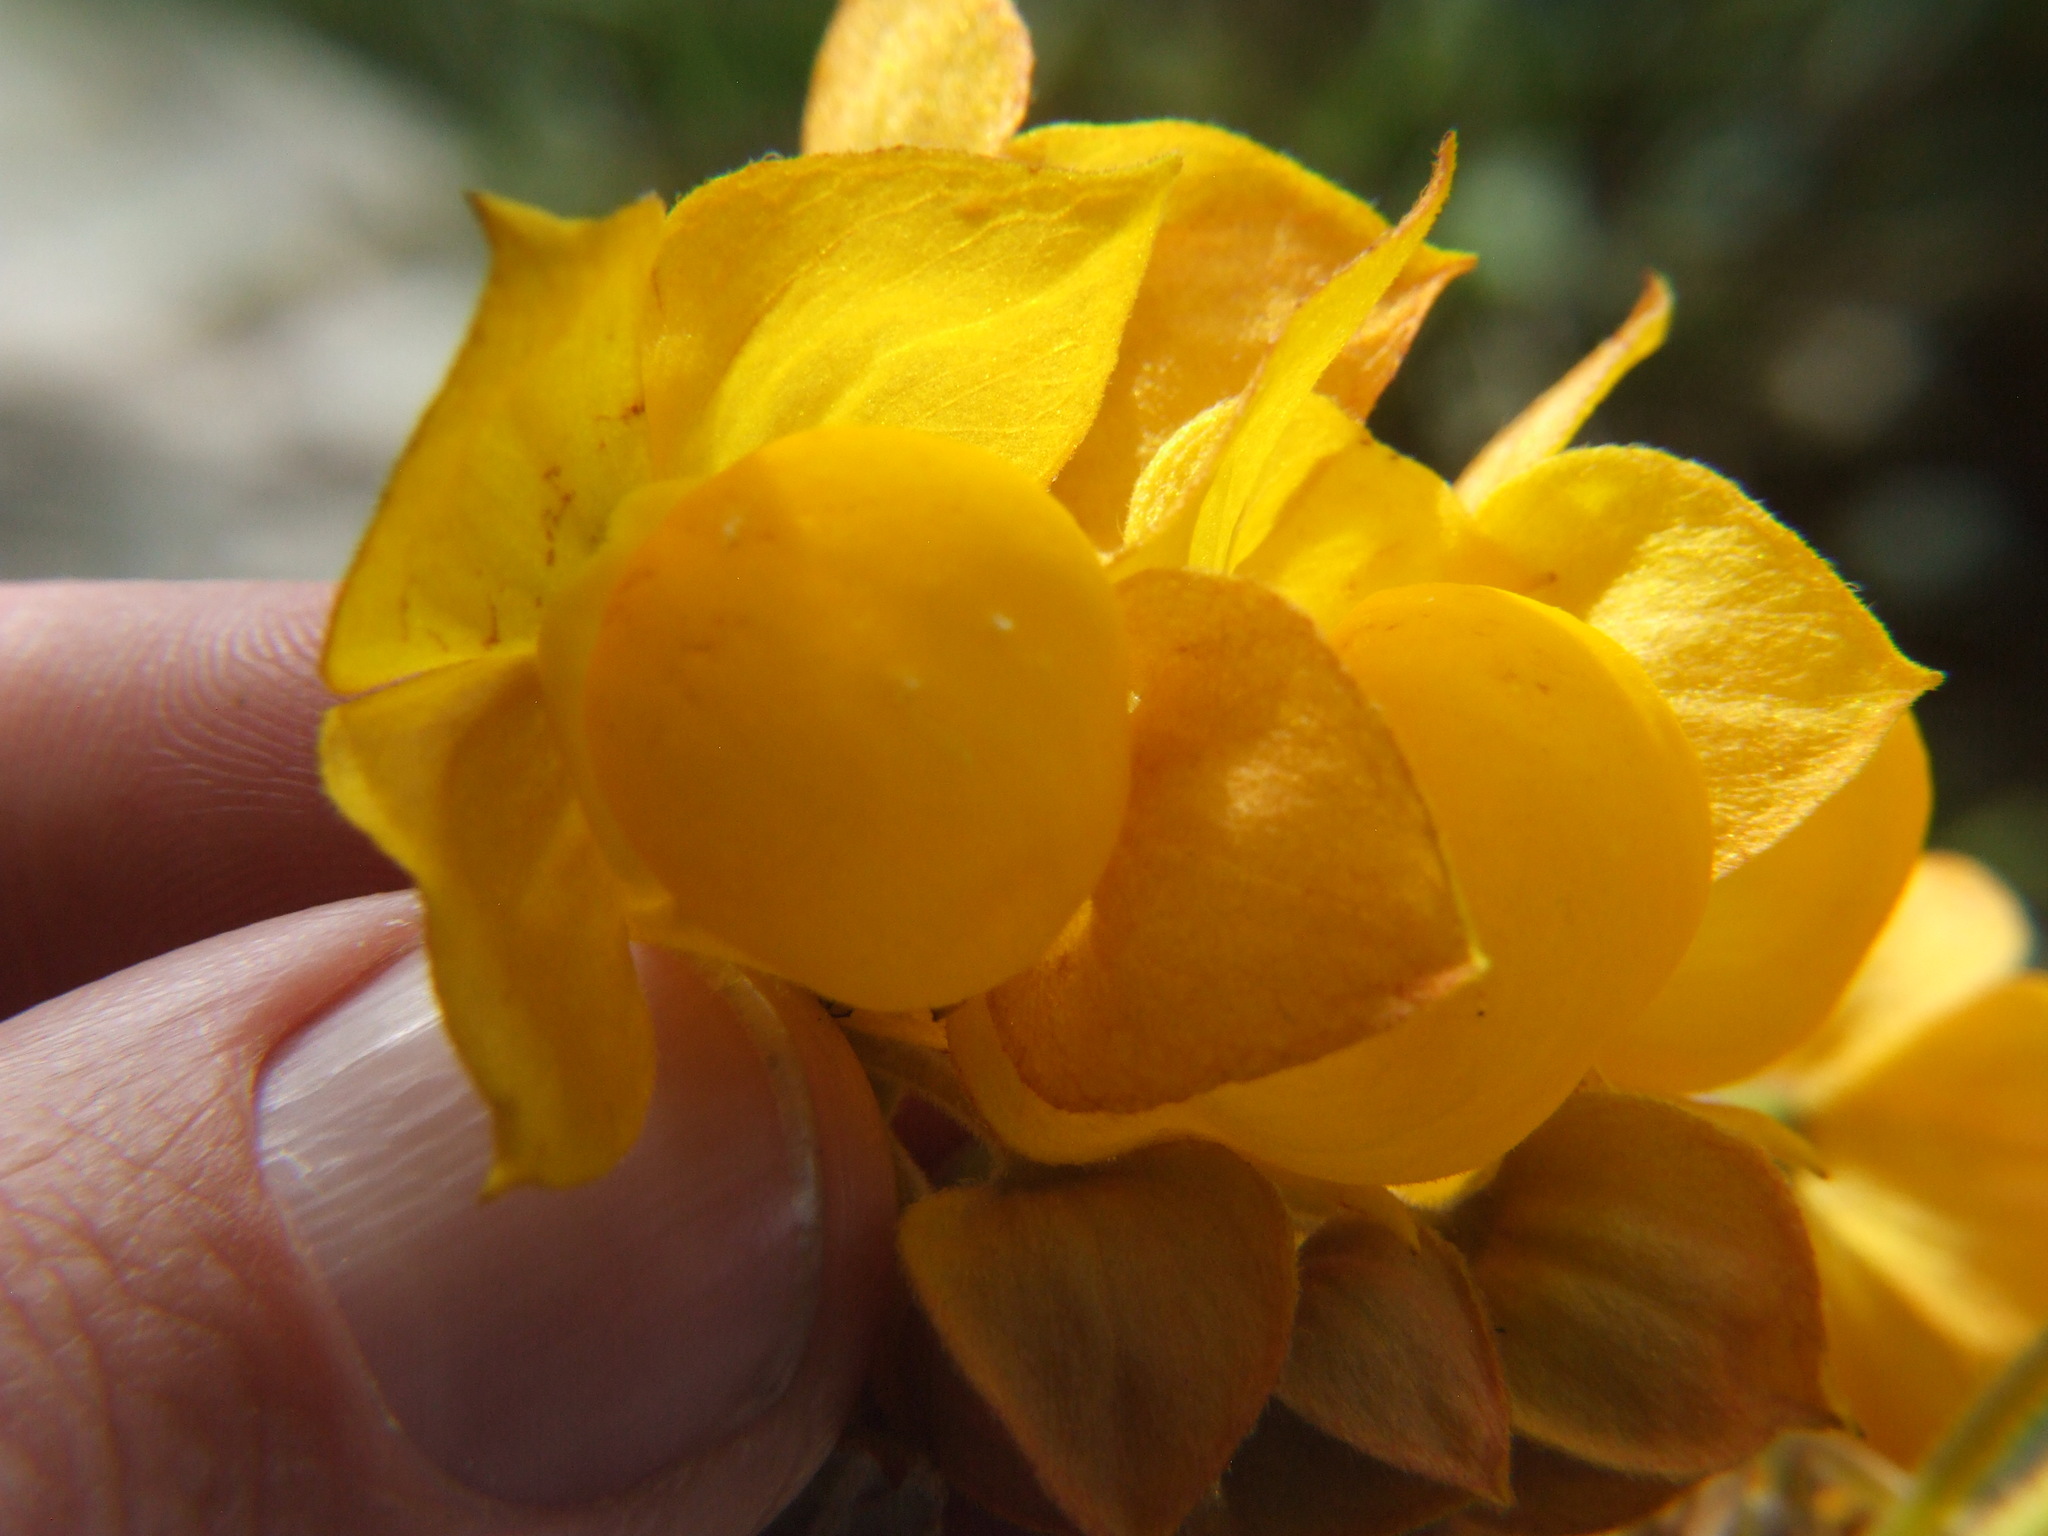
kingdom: Plantae
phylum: Tracheophyta
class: Magnoliopsida
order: Lamiales
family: Calceolariaceae
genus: Calceolaria
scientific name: Calceolaria flexuosa
